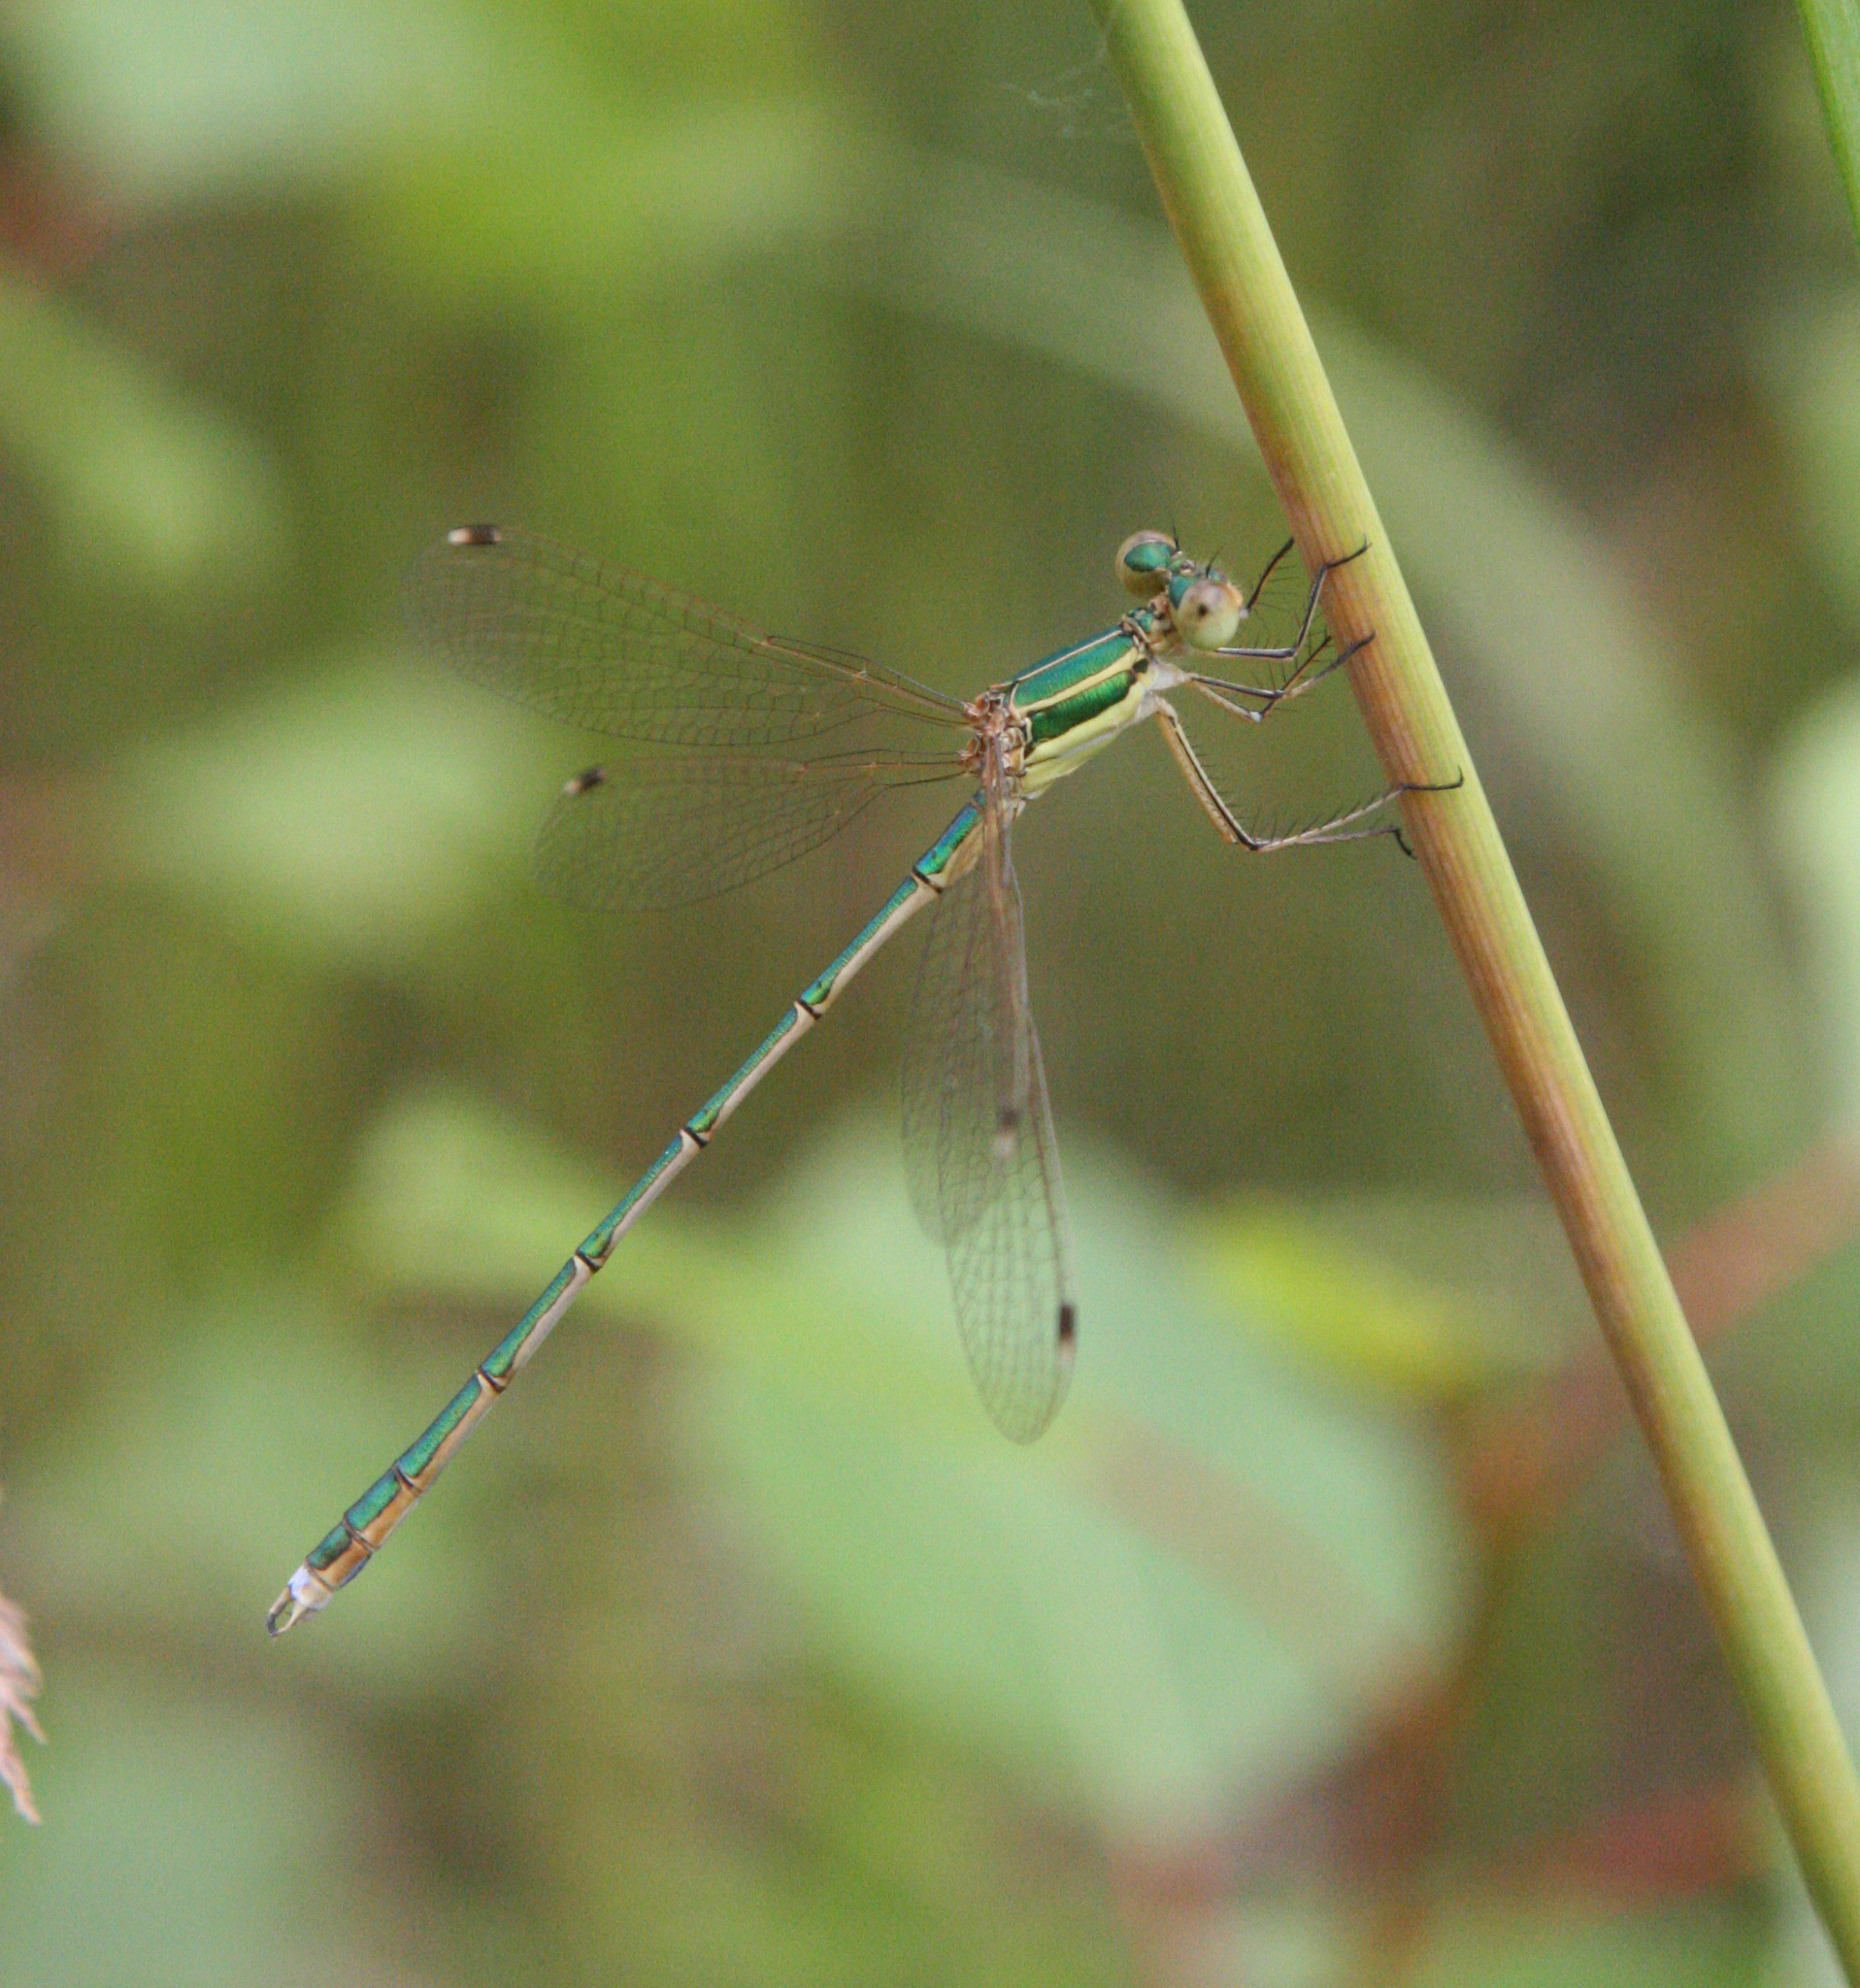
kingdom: Animalia
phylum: Arthropoda
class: Insecta
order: Odonata
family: Lestidae
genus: Lestes
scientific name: Lestes barbarus
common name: Migrant spreadwing
